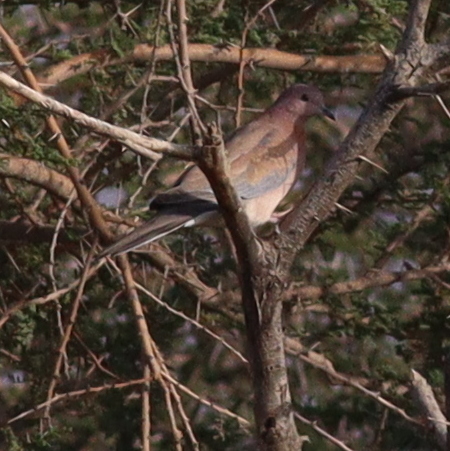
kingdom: Animalia
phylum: Chordata
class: Aves
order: Columbiformes
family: Columbidae
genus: Spilopelia
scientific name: Spilopelia senegalensis
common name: Laughing dove
